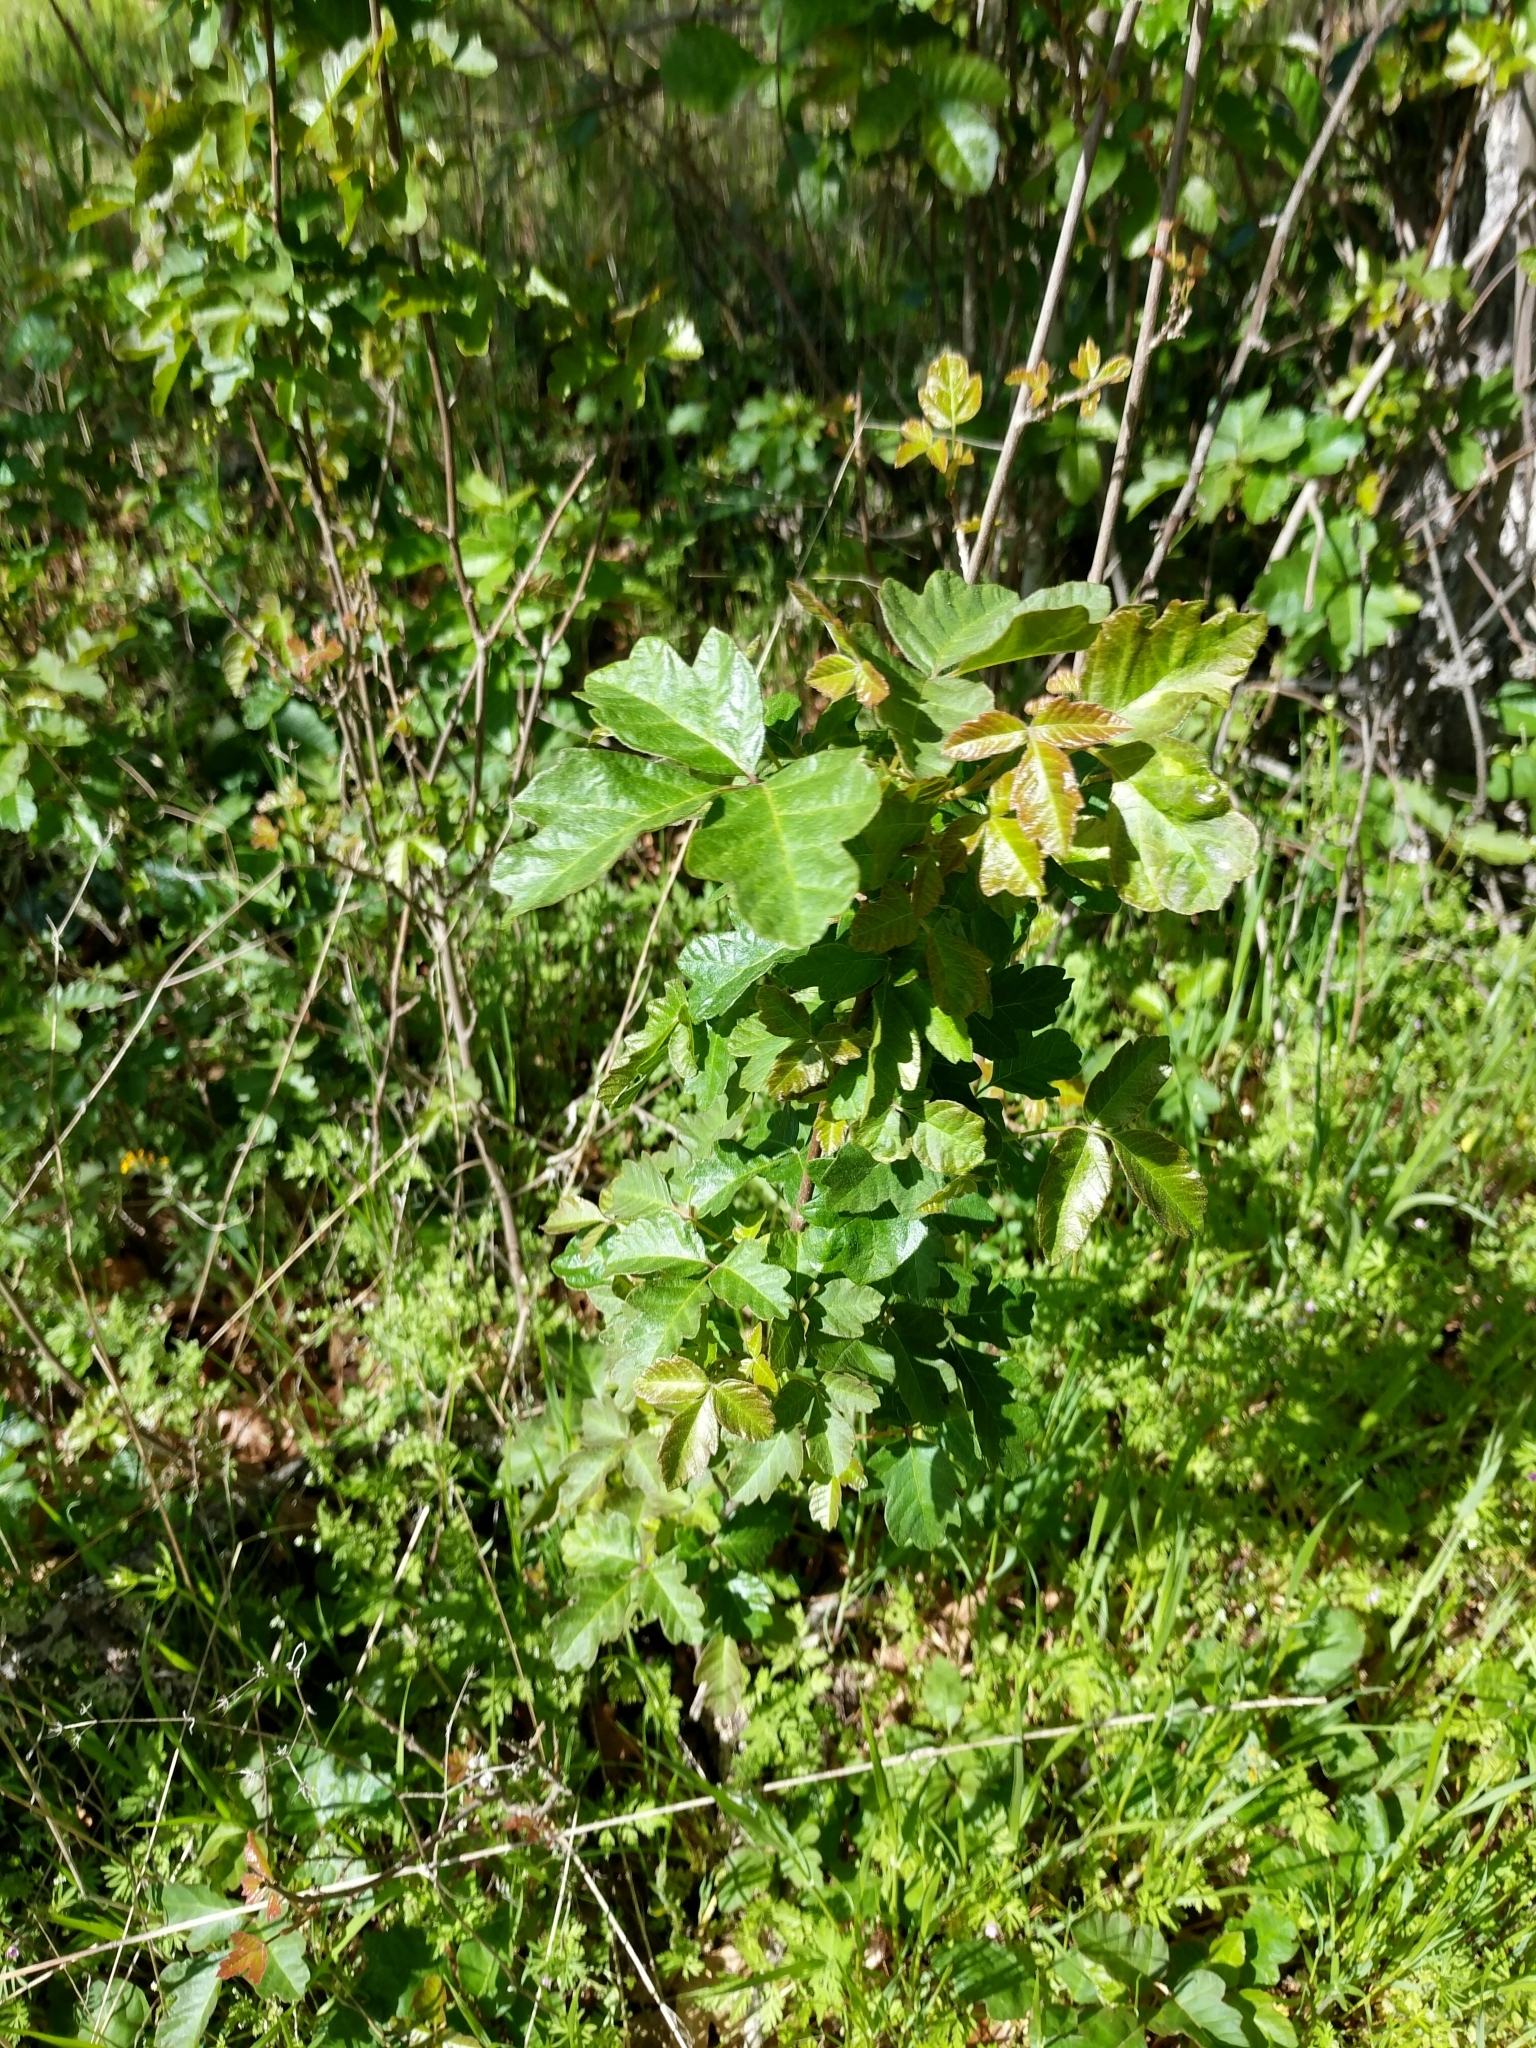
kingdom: Plantae
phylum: Tracheophyta
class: Magnoliopsida
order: Sapindales
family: Anacardiaceae
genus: Toxicodendron
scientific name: Toxicodendron diversilobum
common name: Pacific poison-oak
